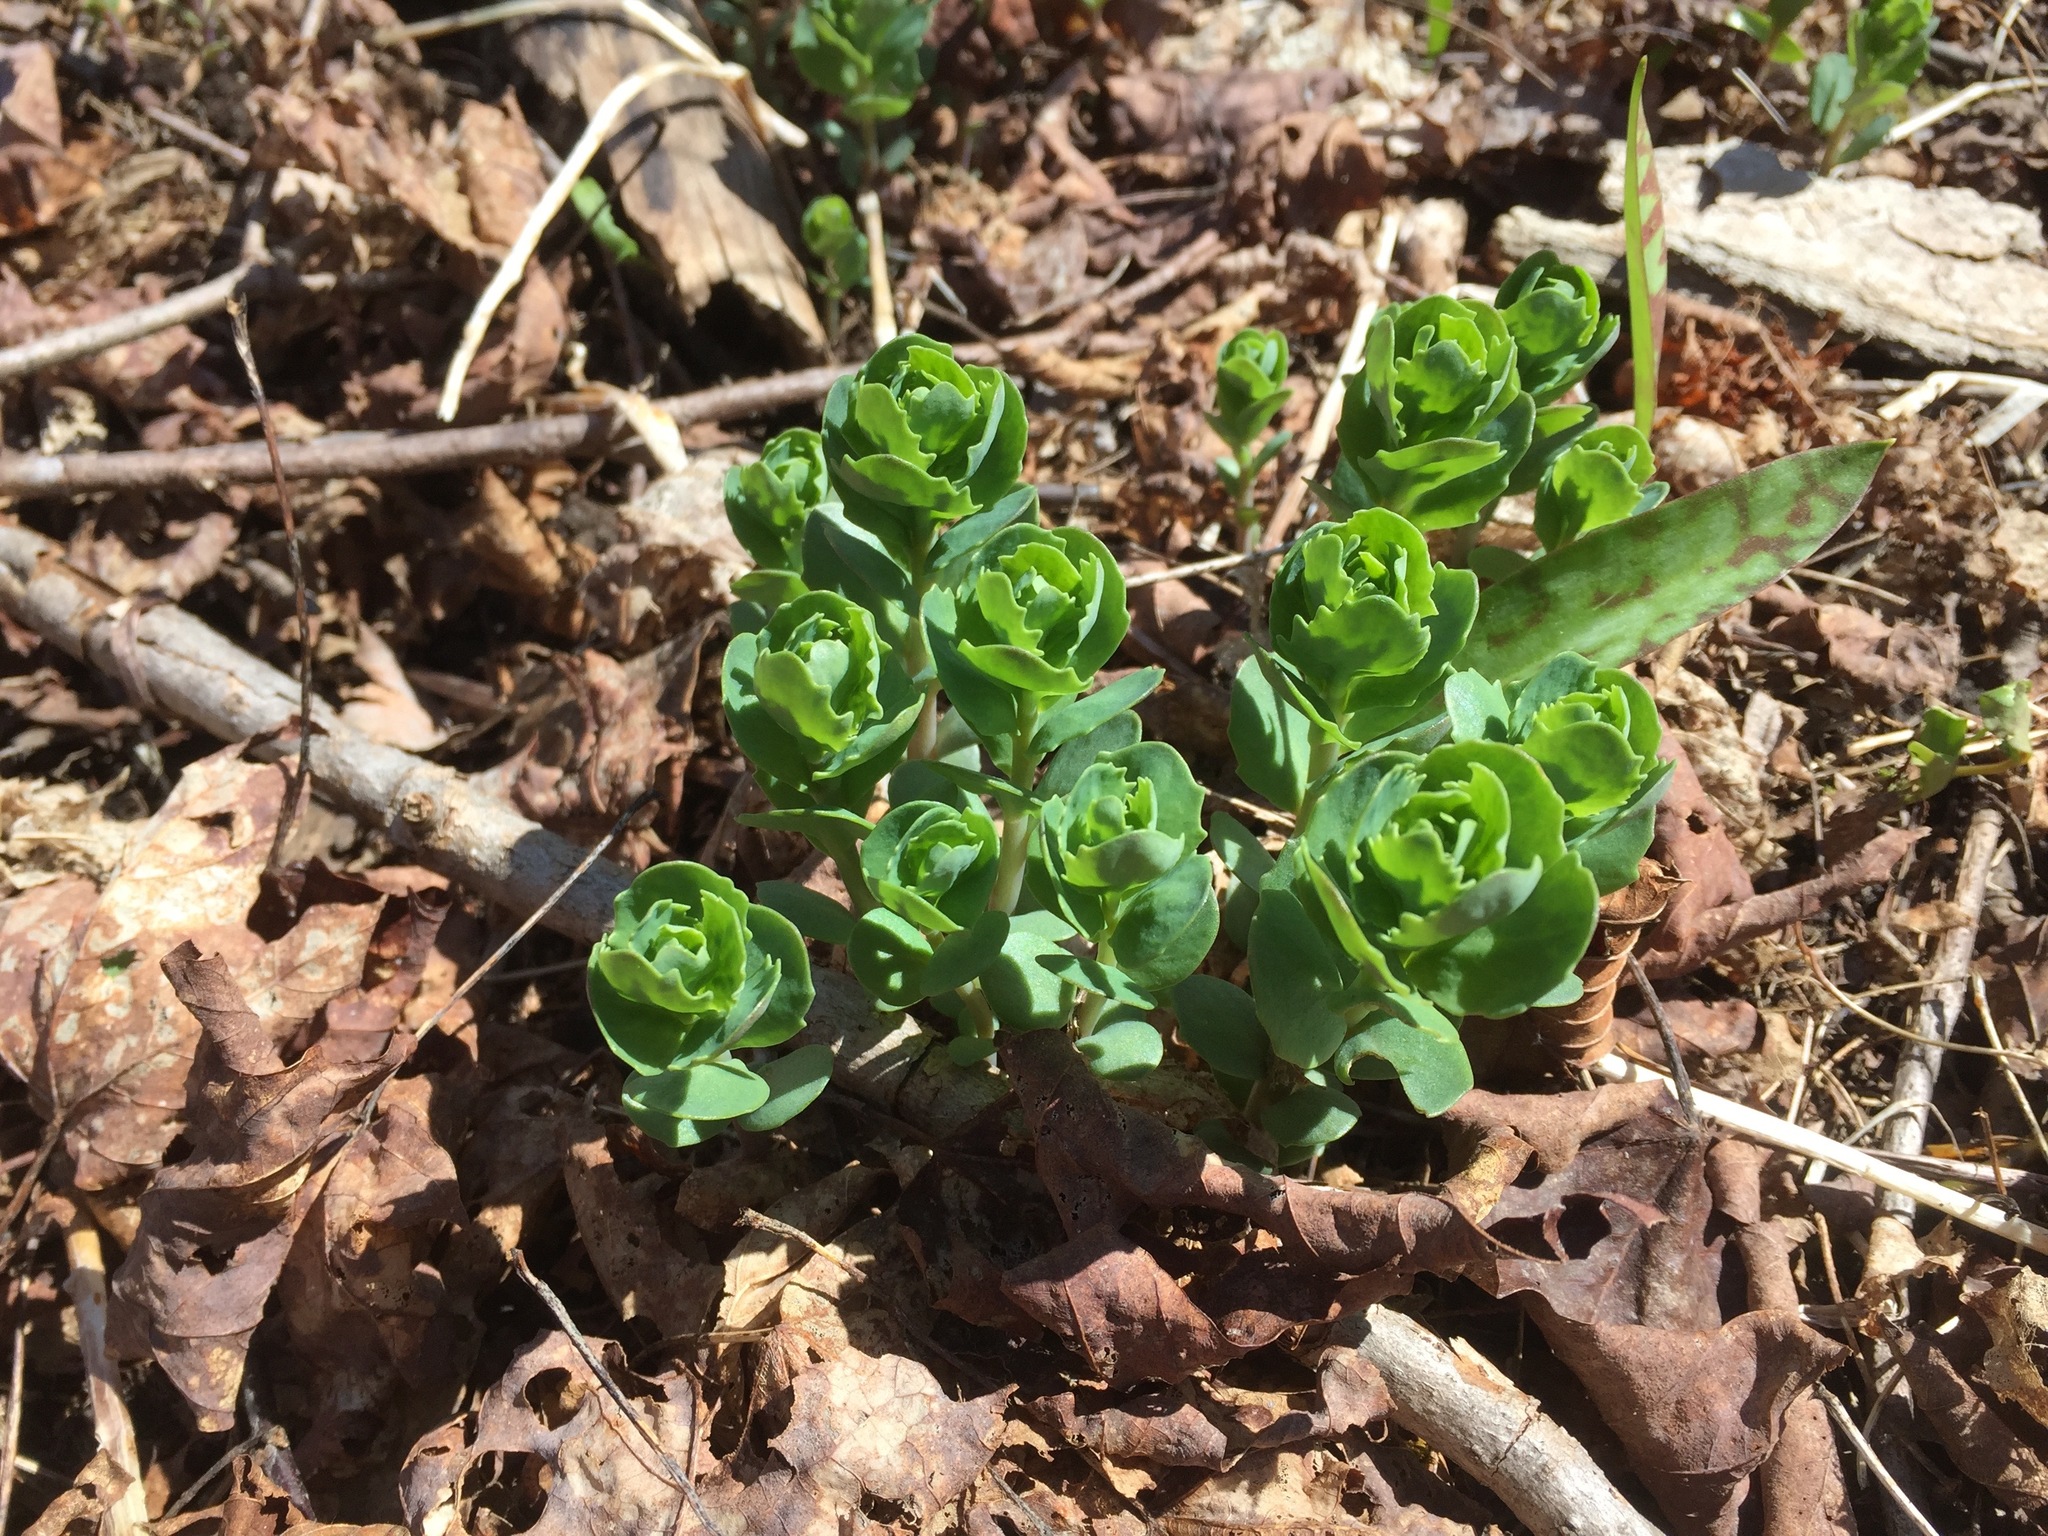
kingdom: Plantae
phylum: Tracheophyta
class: Magnoliopsida
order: Saxifragales
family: Crassulaceae
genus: Hylotelephium
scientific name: Hylotelephium telephium
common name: Live-forever
